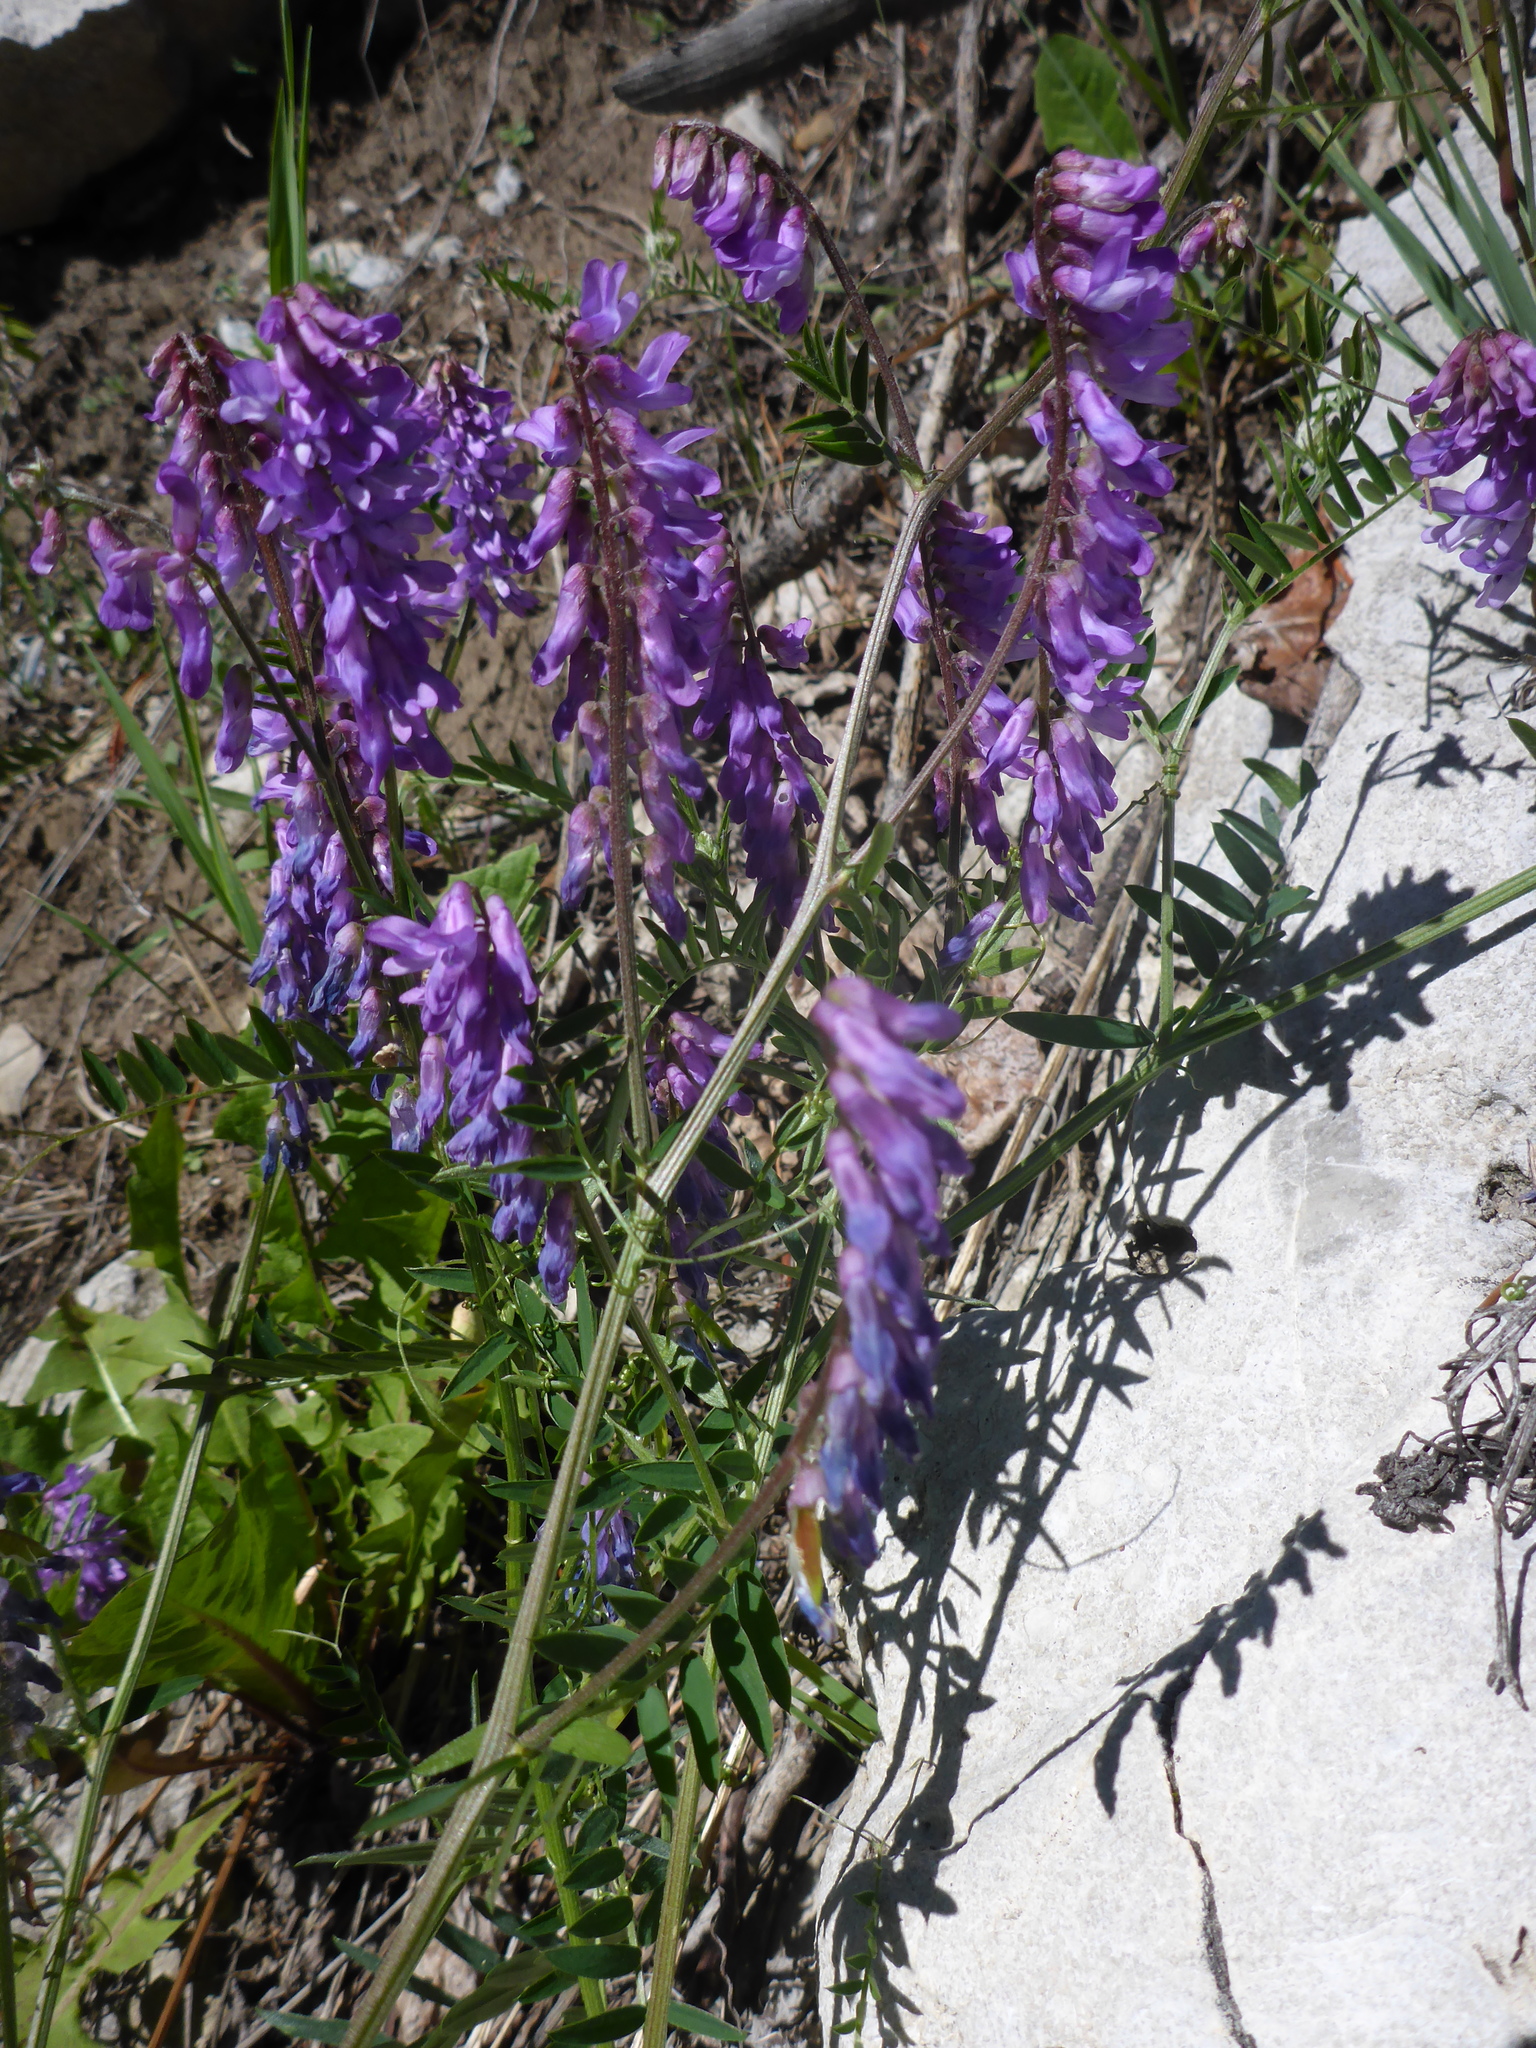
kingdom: Plantae
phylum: Tracheophyta
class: Magnoliopsida
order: Fabales
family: Fabaceae
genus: Vicia
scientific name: Vicia cracca
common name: Bird vetch
